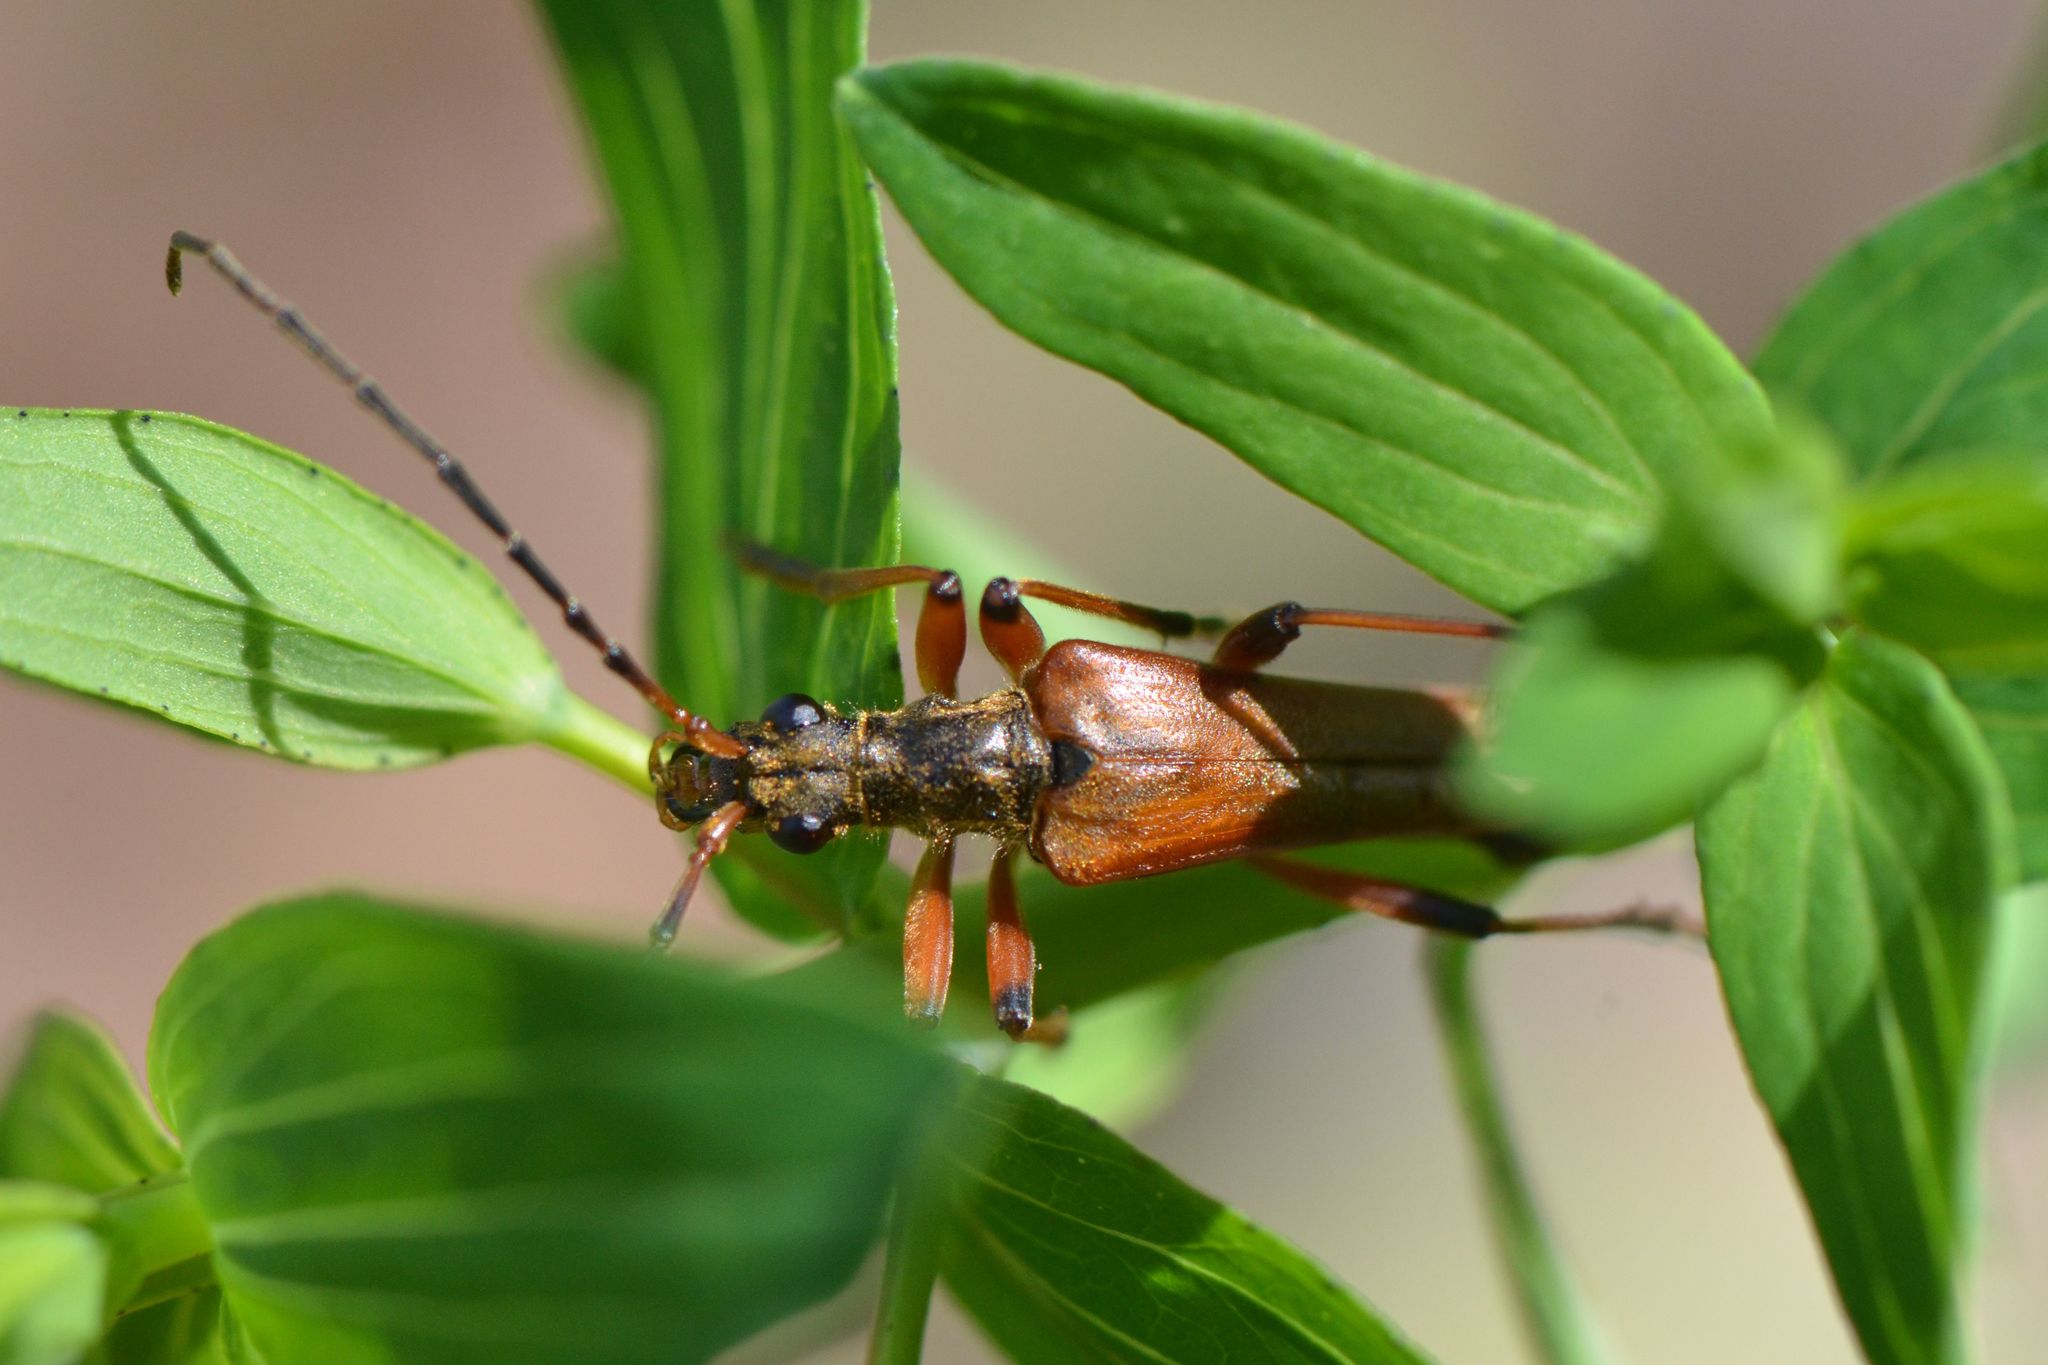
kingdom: Animalia
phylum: Arthropoda
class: Insecta
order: Coleoptera
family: Cerambycidae
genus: Stenocorus
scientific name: Stenocorus meridianus
